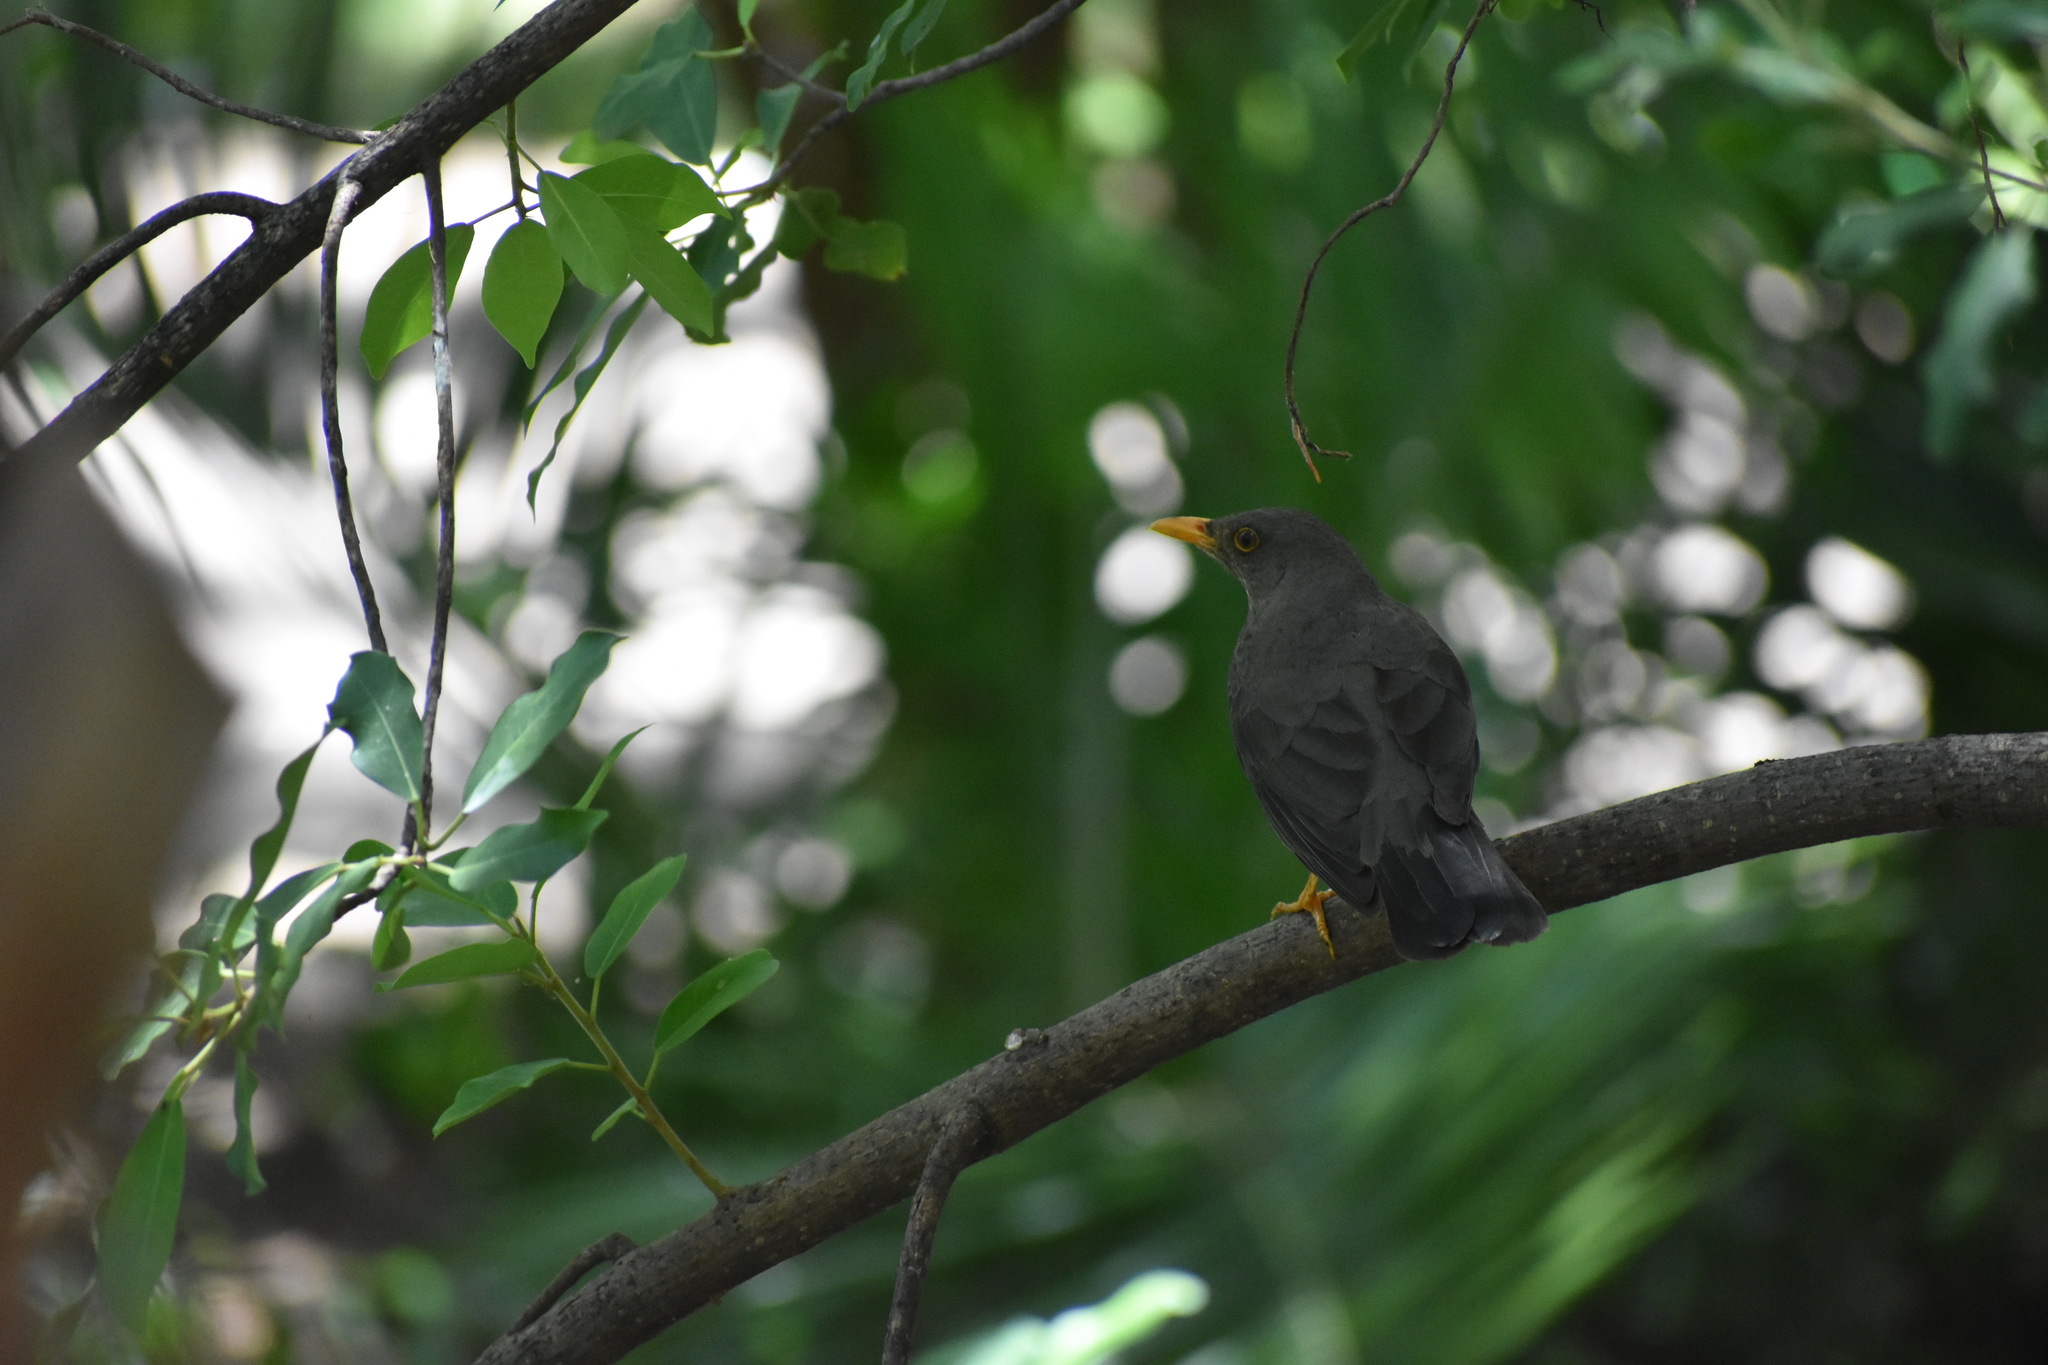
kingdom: Animalia
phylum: Chordata
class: Aves
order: Passeriformes
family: Turdidae
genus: Turdus
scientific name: Turdus smithi
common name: Karoo thrush
